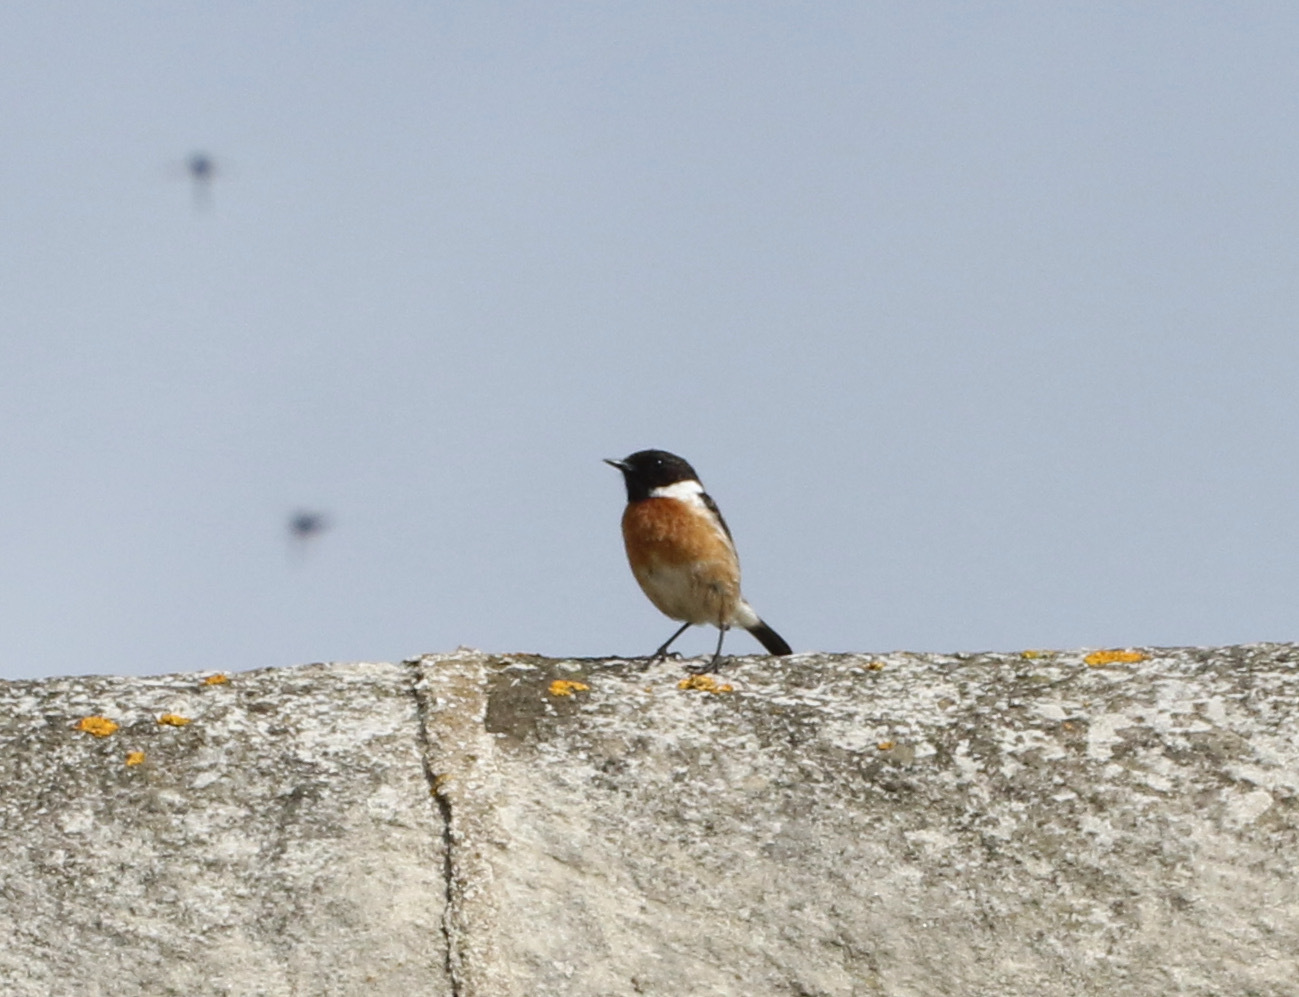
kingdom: Animalia
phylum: Chordata
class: Aves
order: Passeriformes
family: Muscicapidae
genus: Saxicola
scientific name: Saxicola rubicola
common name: European stonechat
